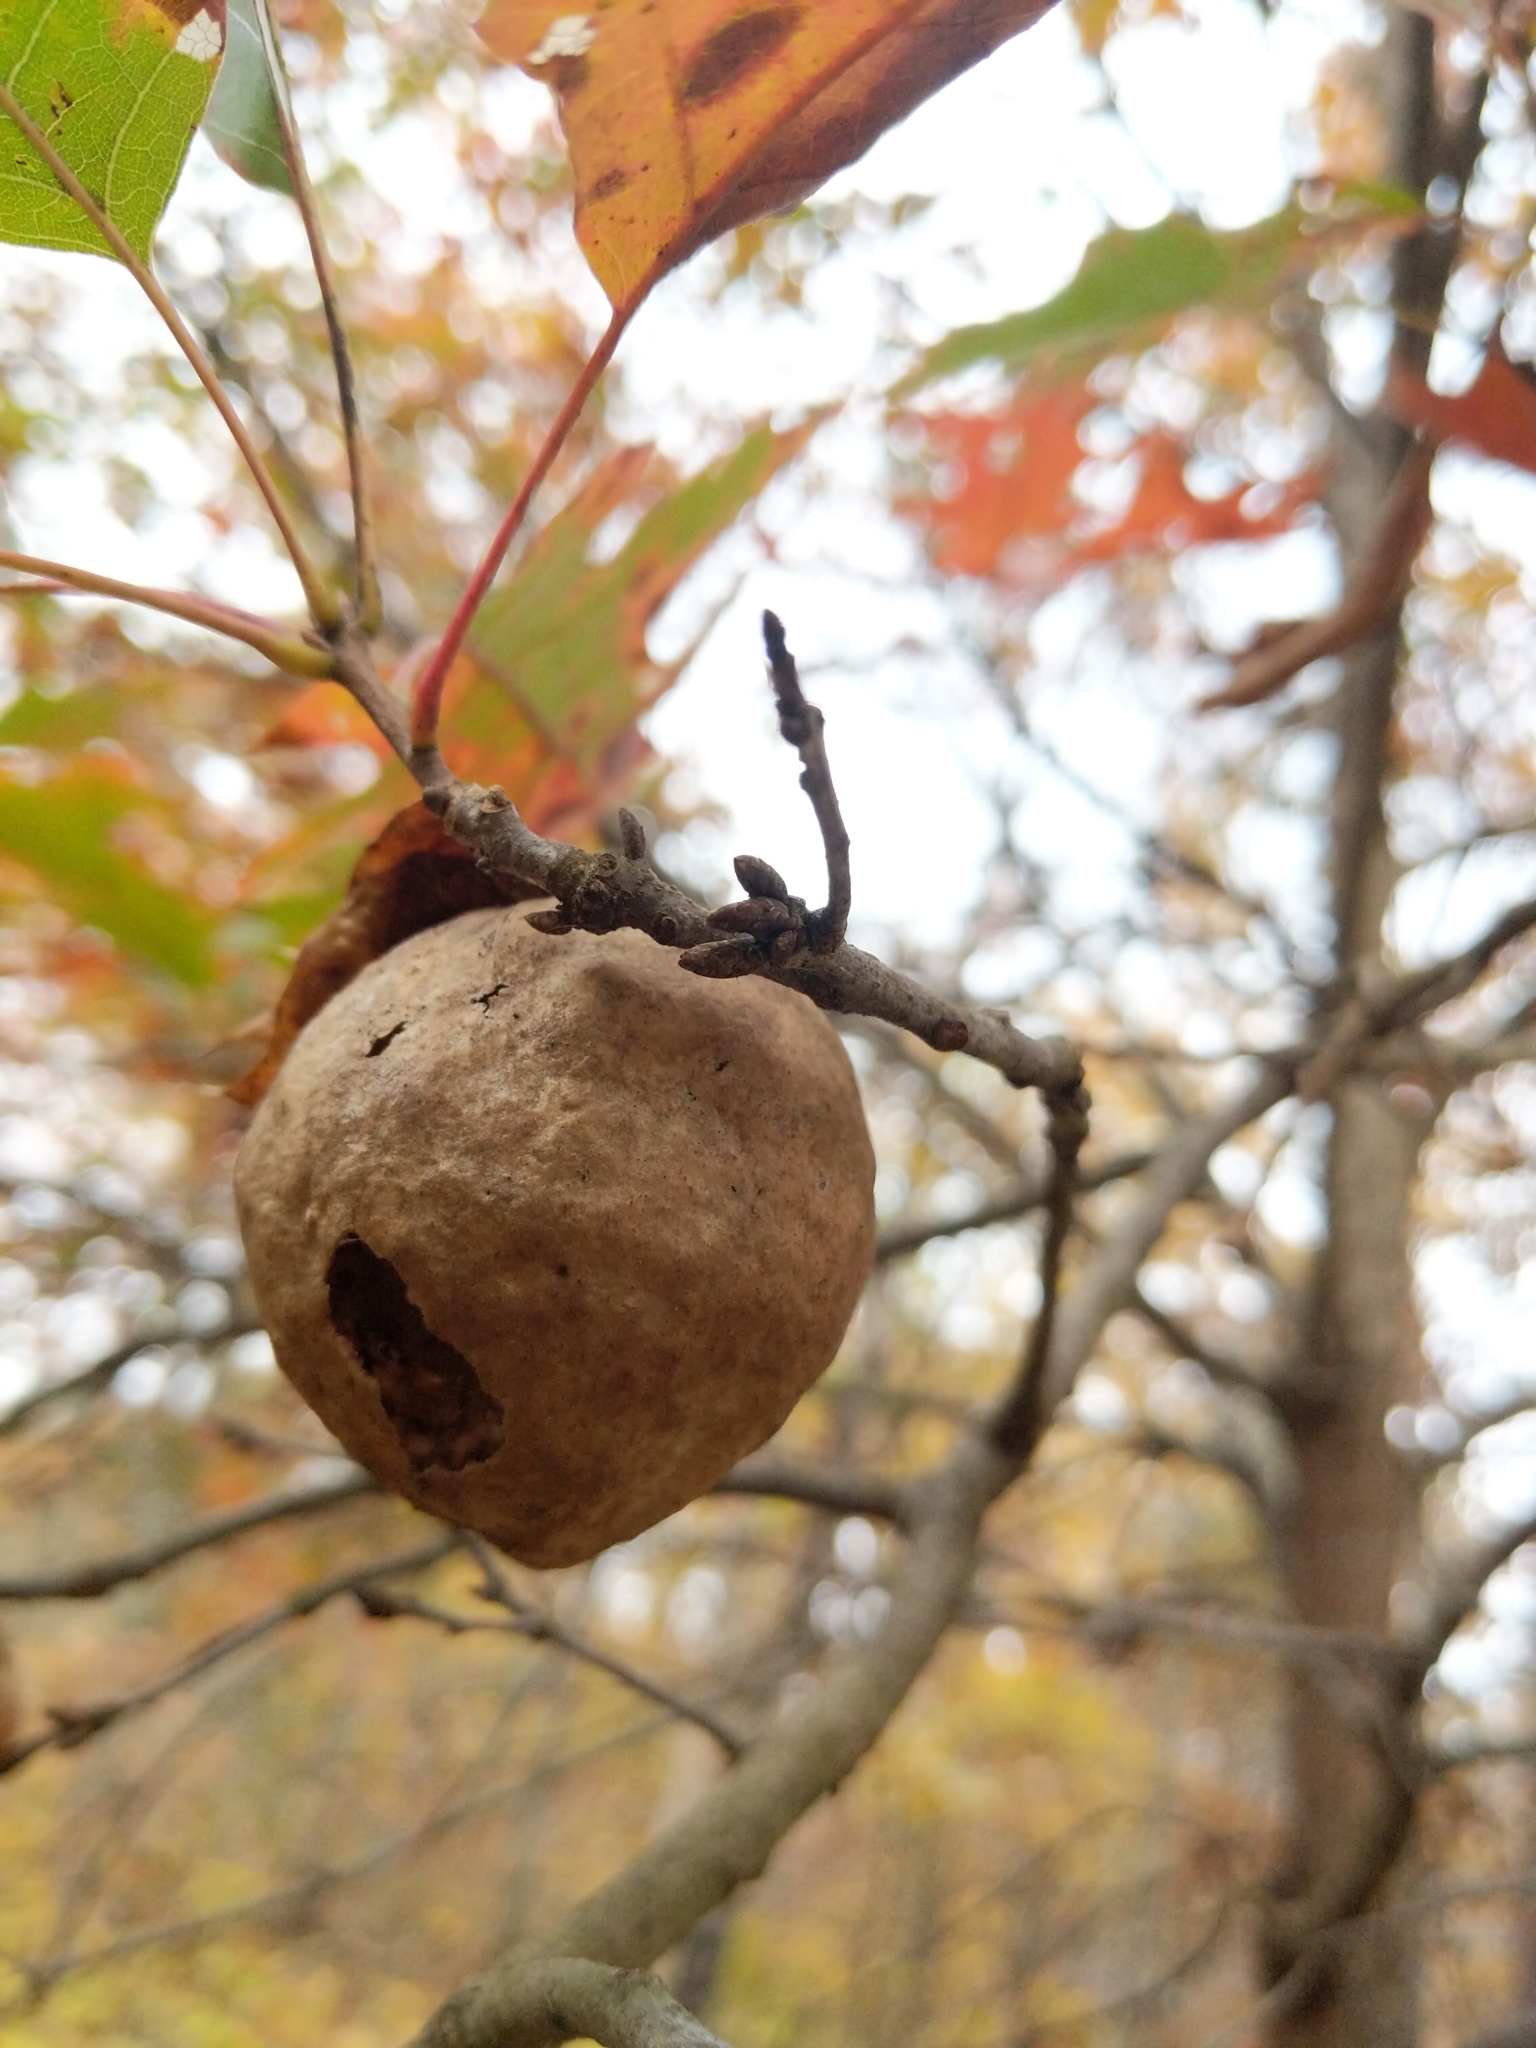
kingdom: Animalia
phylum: Arthropoda
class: Insecta
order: Hymenoptera
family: Cynipidae
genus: Amphibolips
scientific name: Amphibolips
